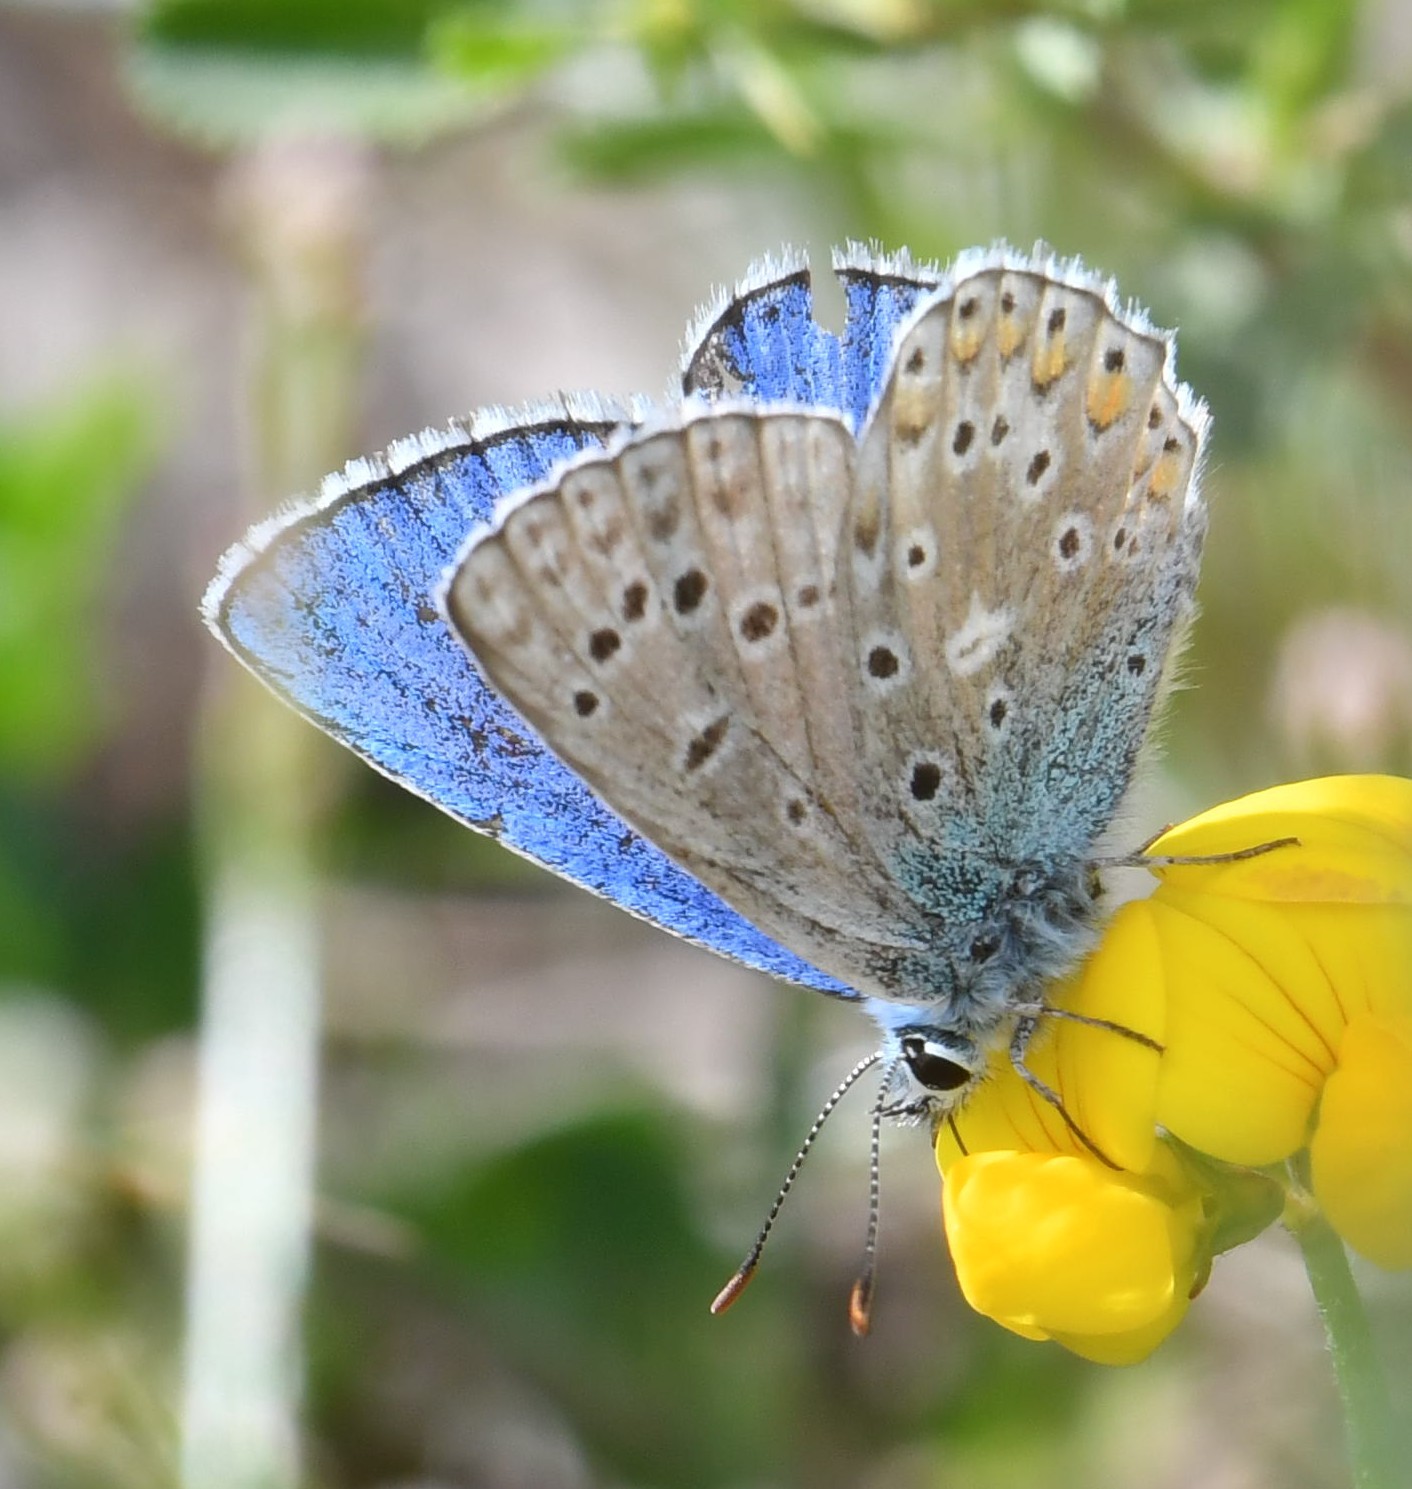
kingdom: Animalia
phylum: Arthropoda
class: Insecta
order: Lepidoptera
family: Lycaenidae
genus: Lysandra
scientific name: Lysandra bellargus
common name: Adonis blue
